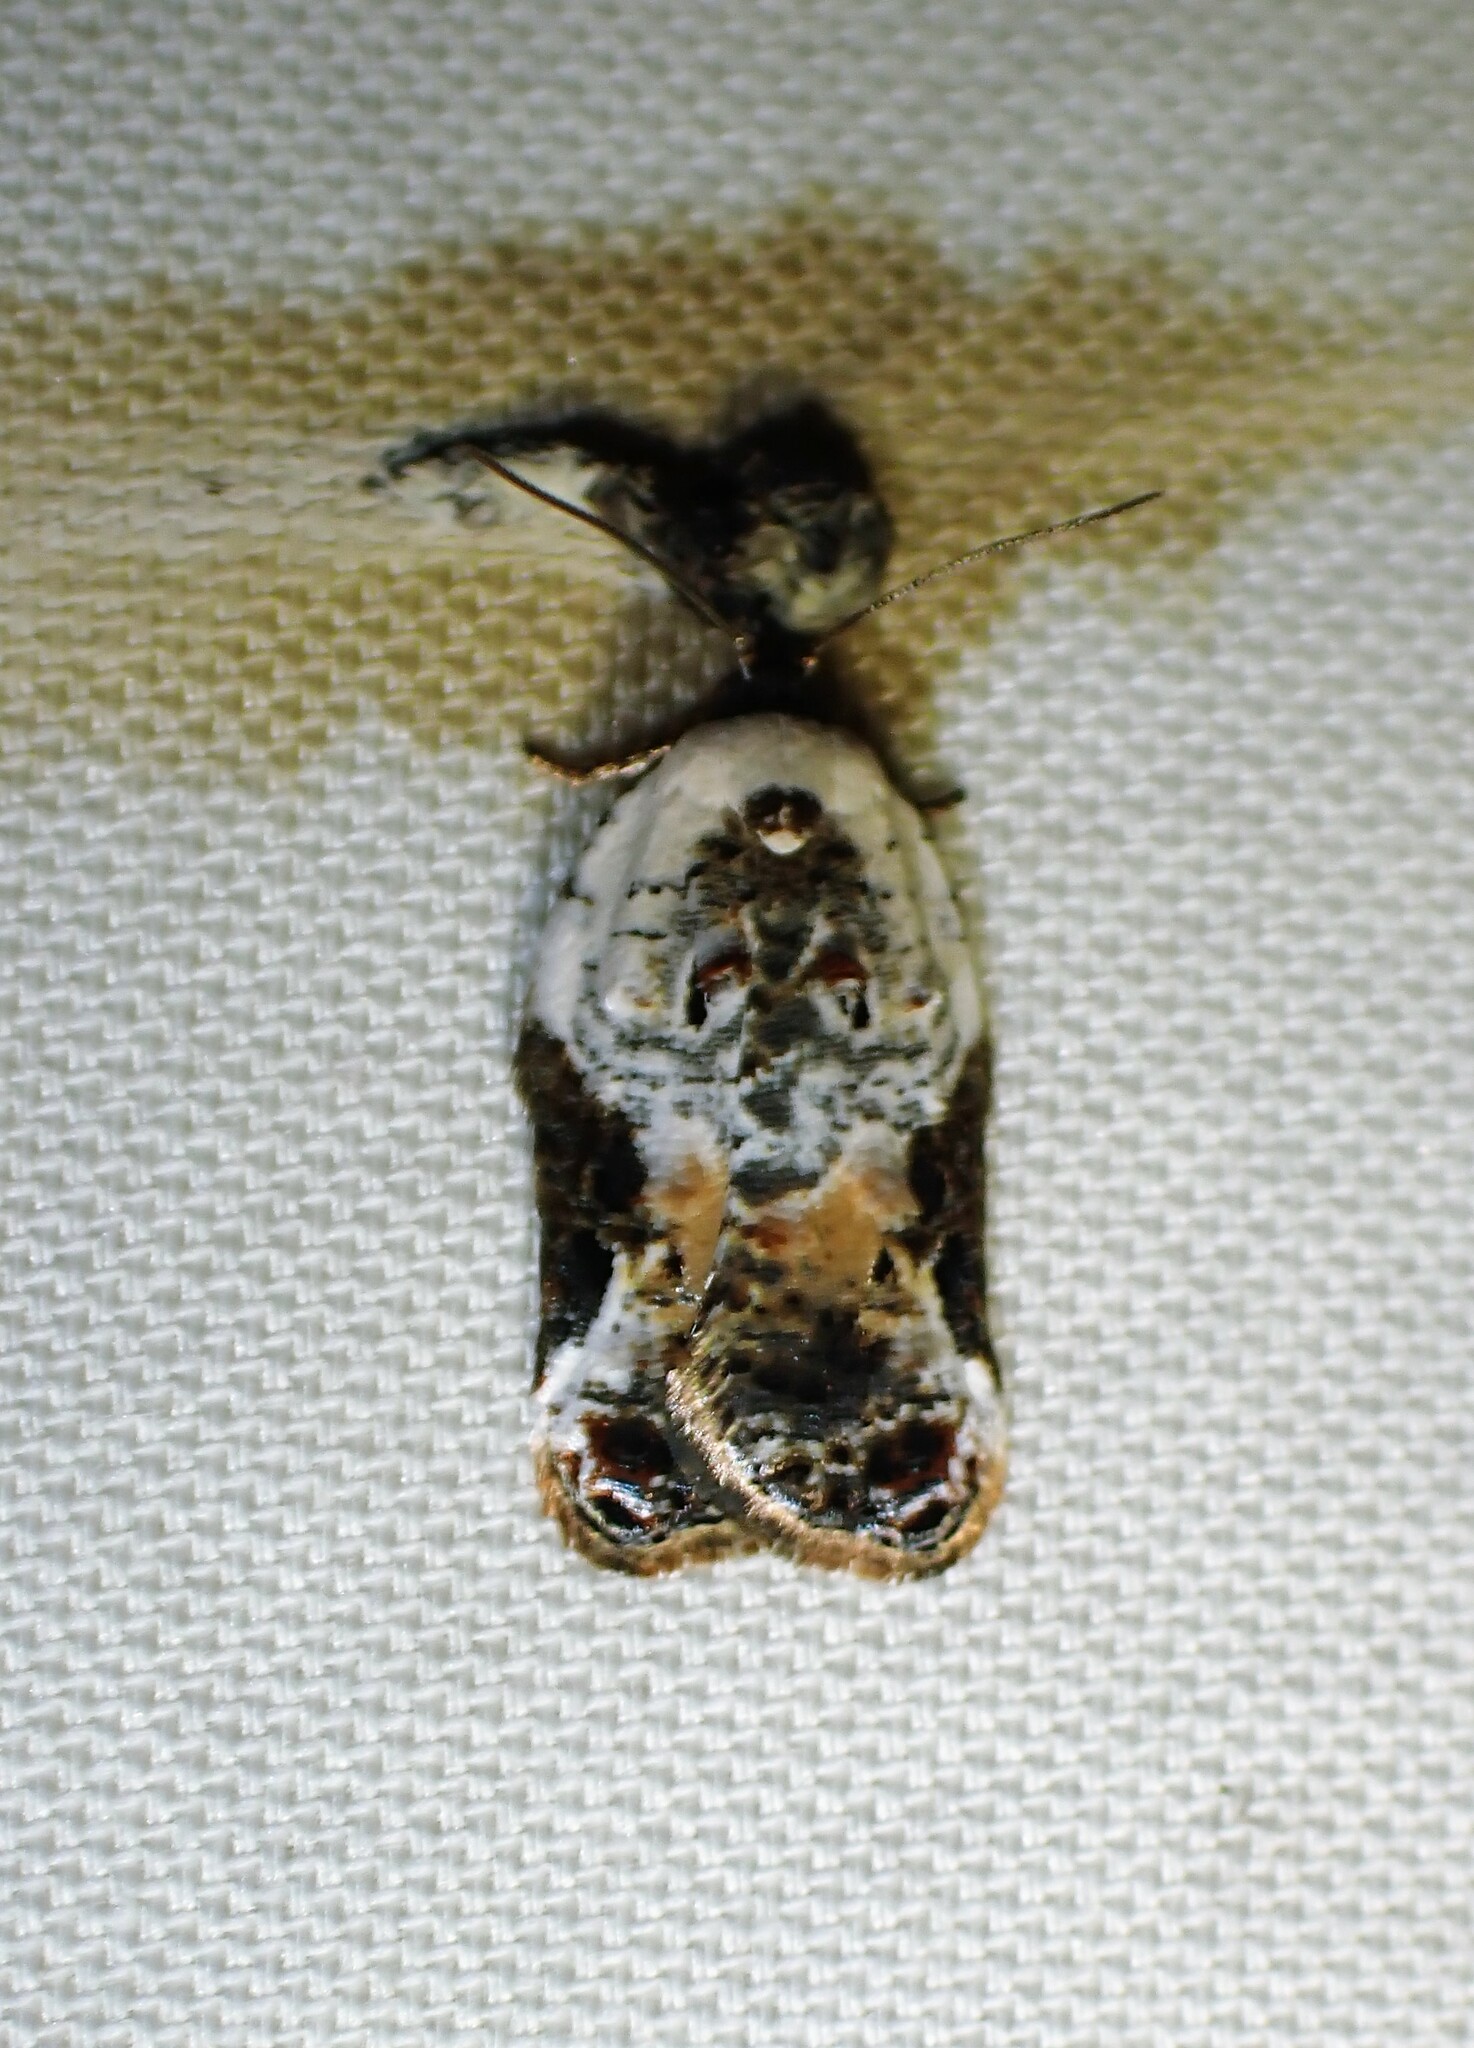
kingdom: Animalia
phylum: Arthropoda
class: Insecta
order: Lepidoptera
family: Tortricidae
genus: Acleris
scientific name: Acleris nivisellana
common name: Snowy-shouldered acleris moth
